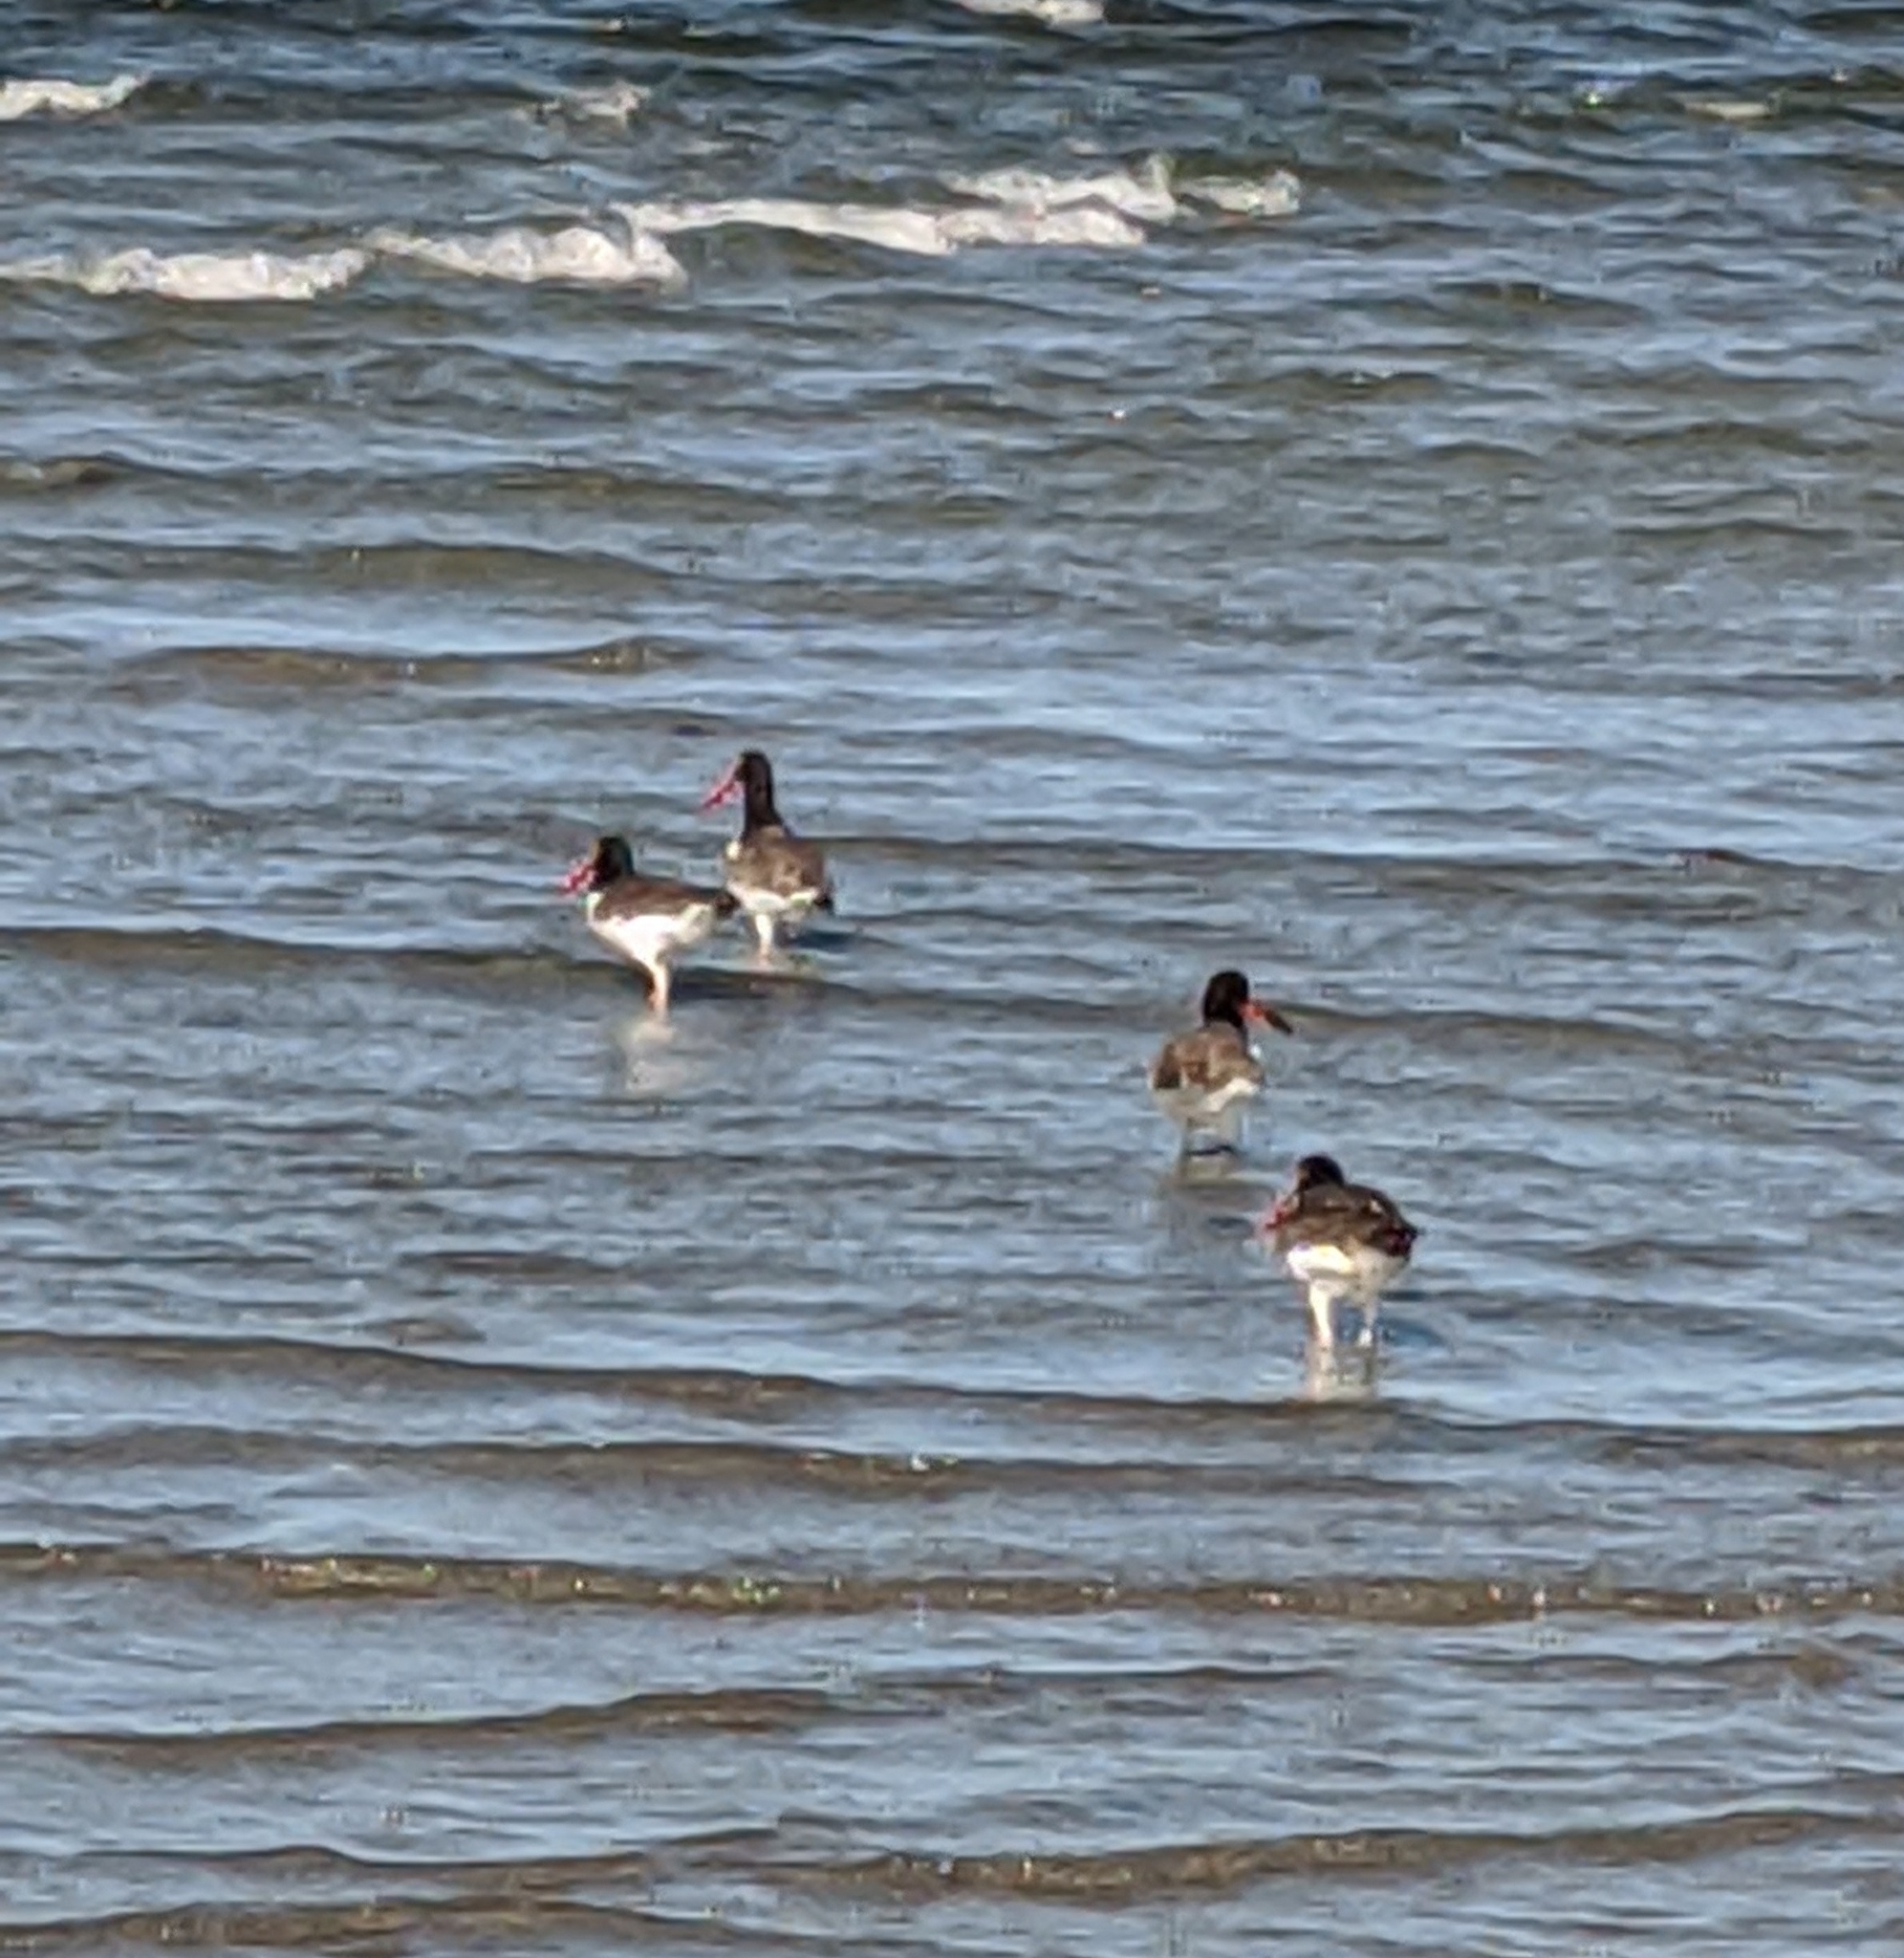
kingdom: Animalia
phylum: Chordata
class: Aves
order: Charadriiformes
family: Haematopodidae
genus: Haematopus
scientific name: Haematopus palliatus
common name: American oystercatcher
